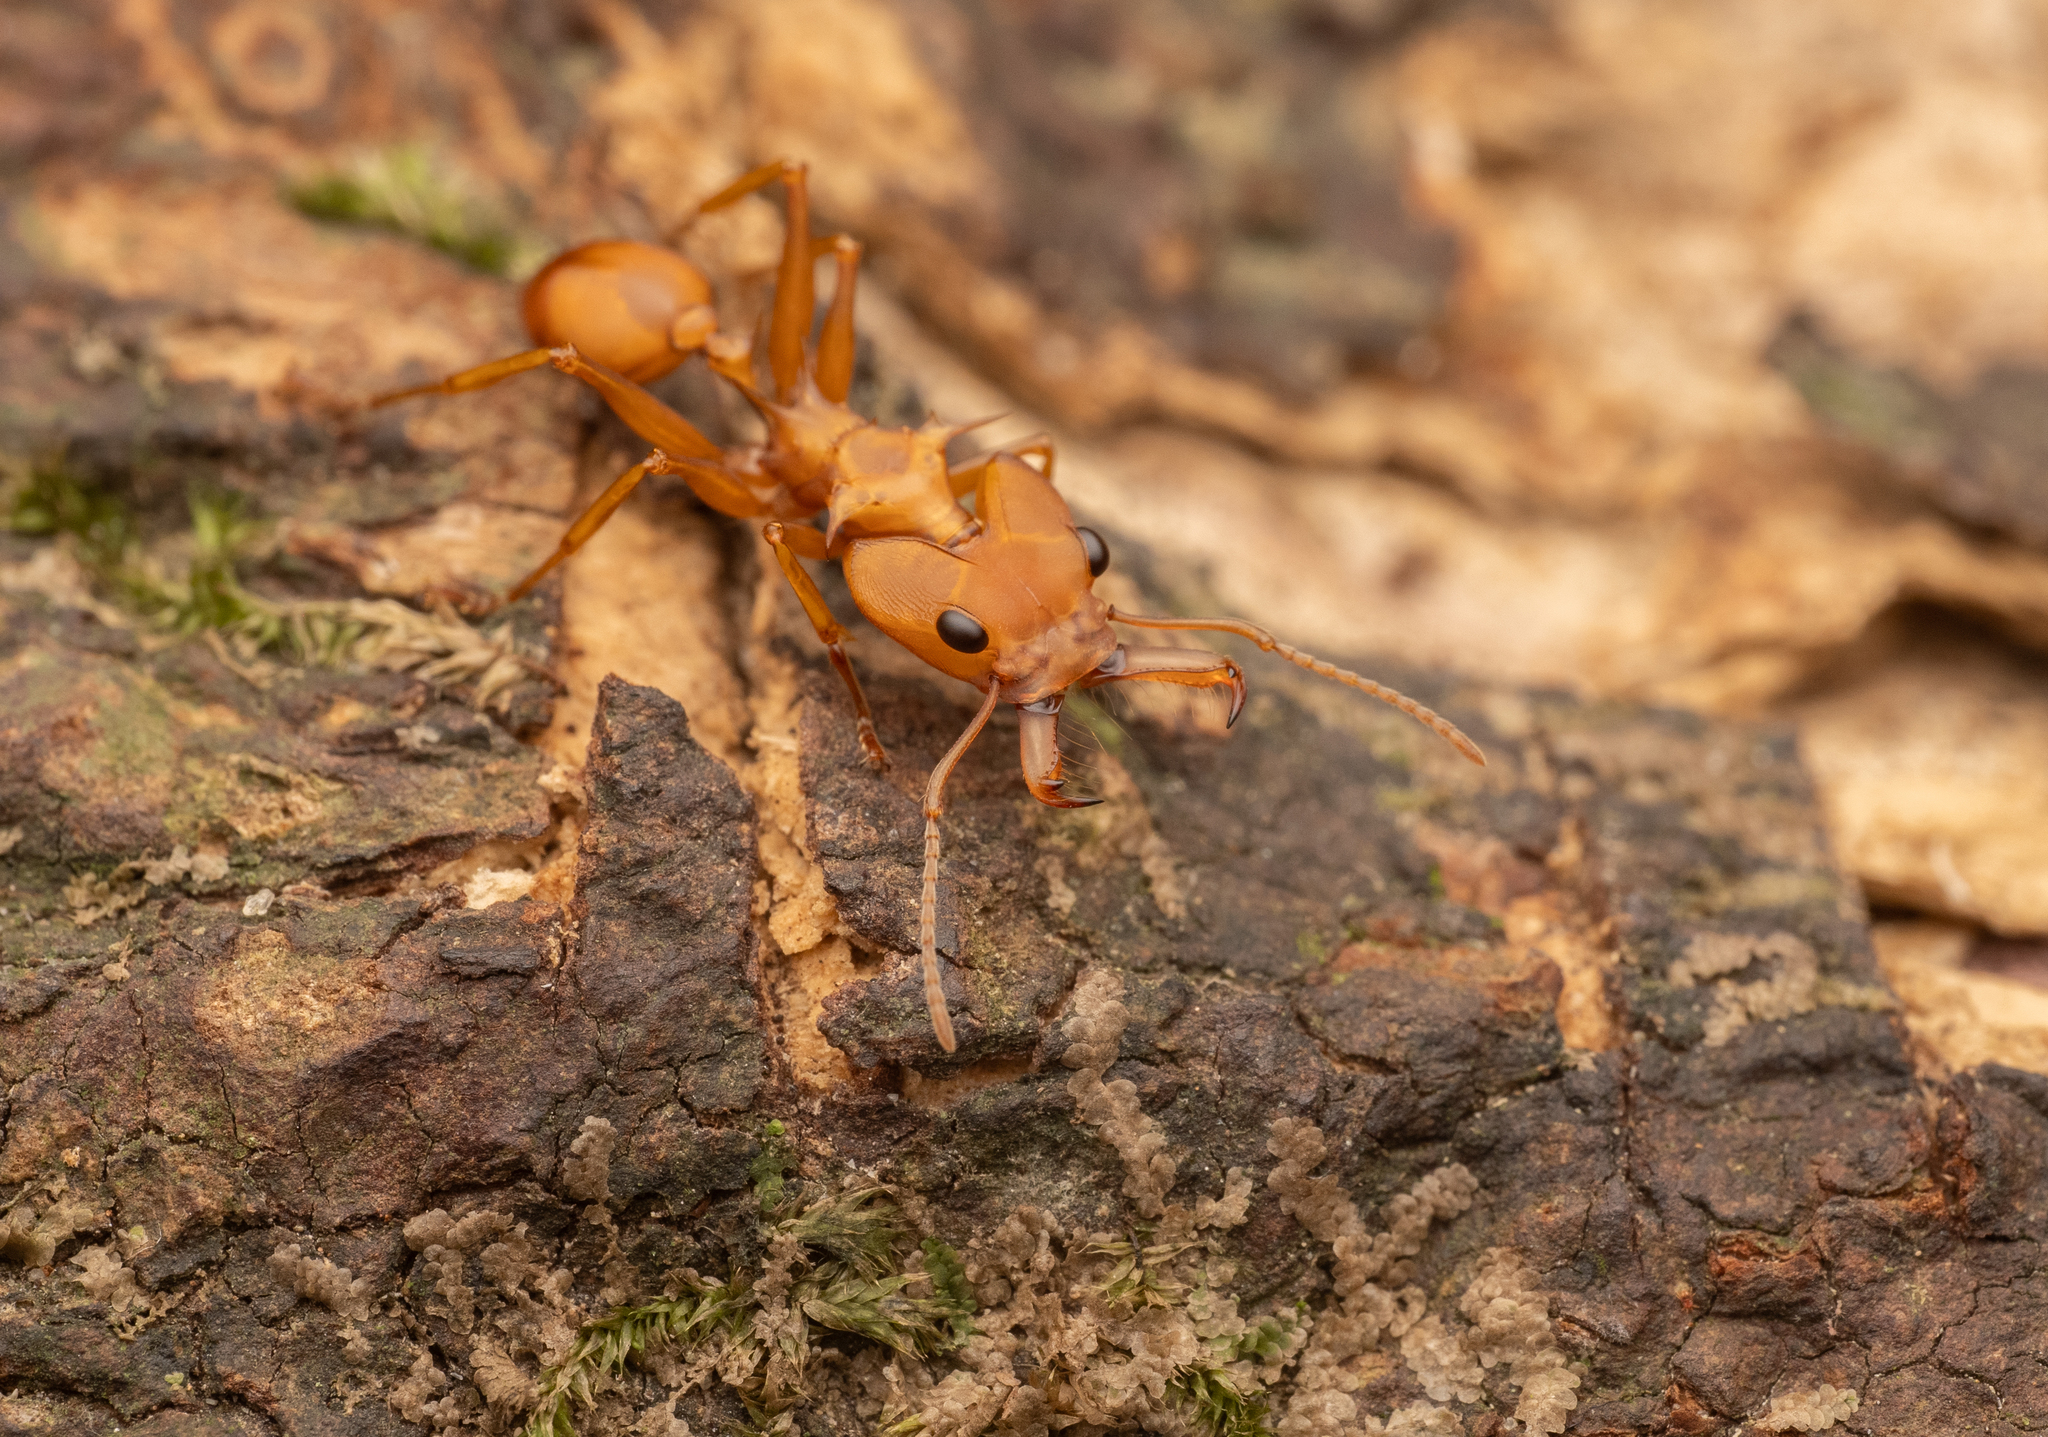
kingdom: Animalia
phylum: Arthropoda
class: Insecta
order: Hymenoptera
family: Formicidae
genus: Daceton
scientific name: Daceton armigerum
